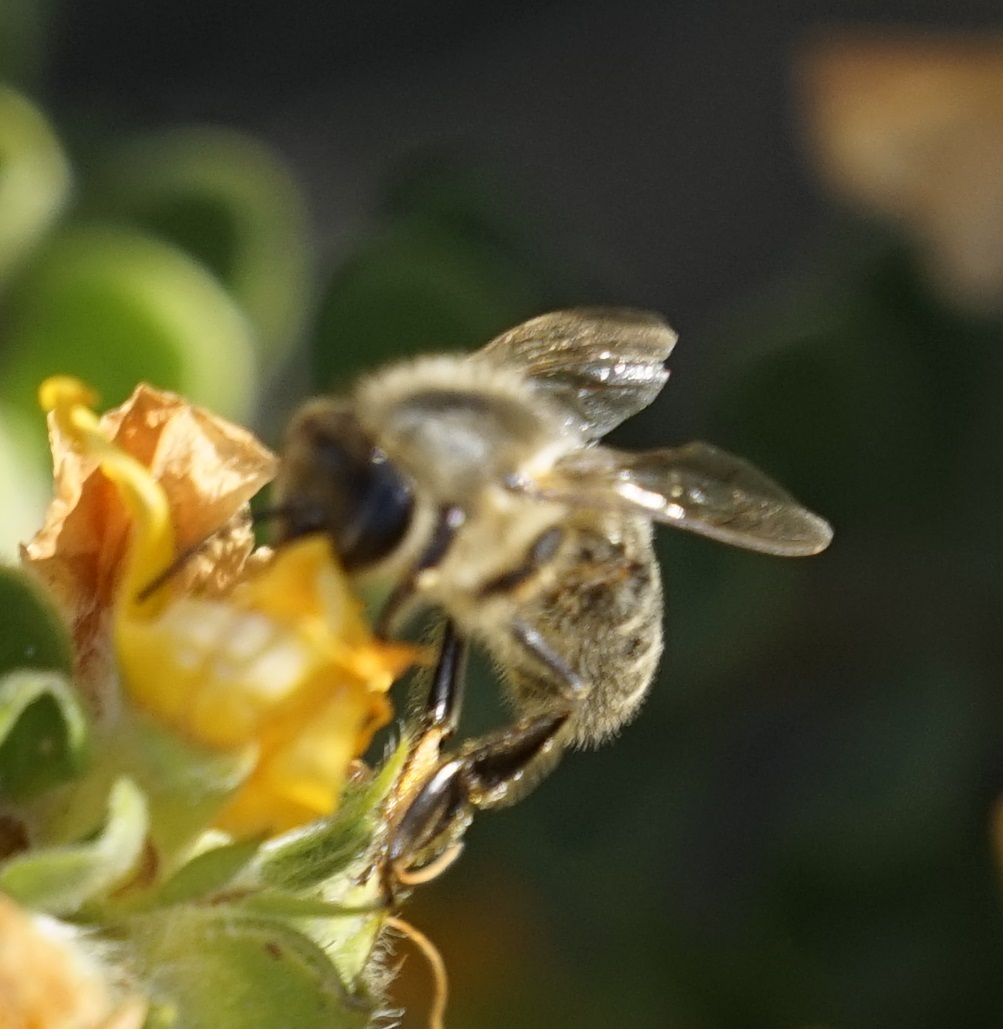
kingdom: Animalia
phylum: Arthropoda
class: Insecta
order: Hymenoptera
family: Apidae
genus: Apis
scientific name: Apis mellifera
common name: Honey bee
